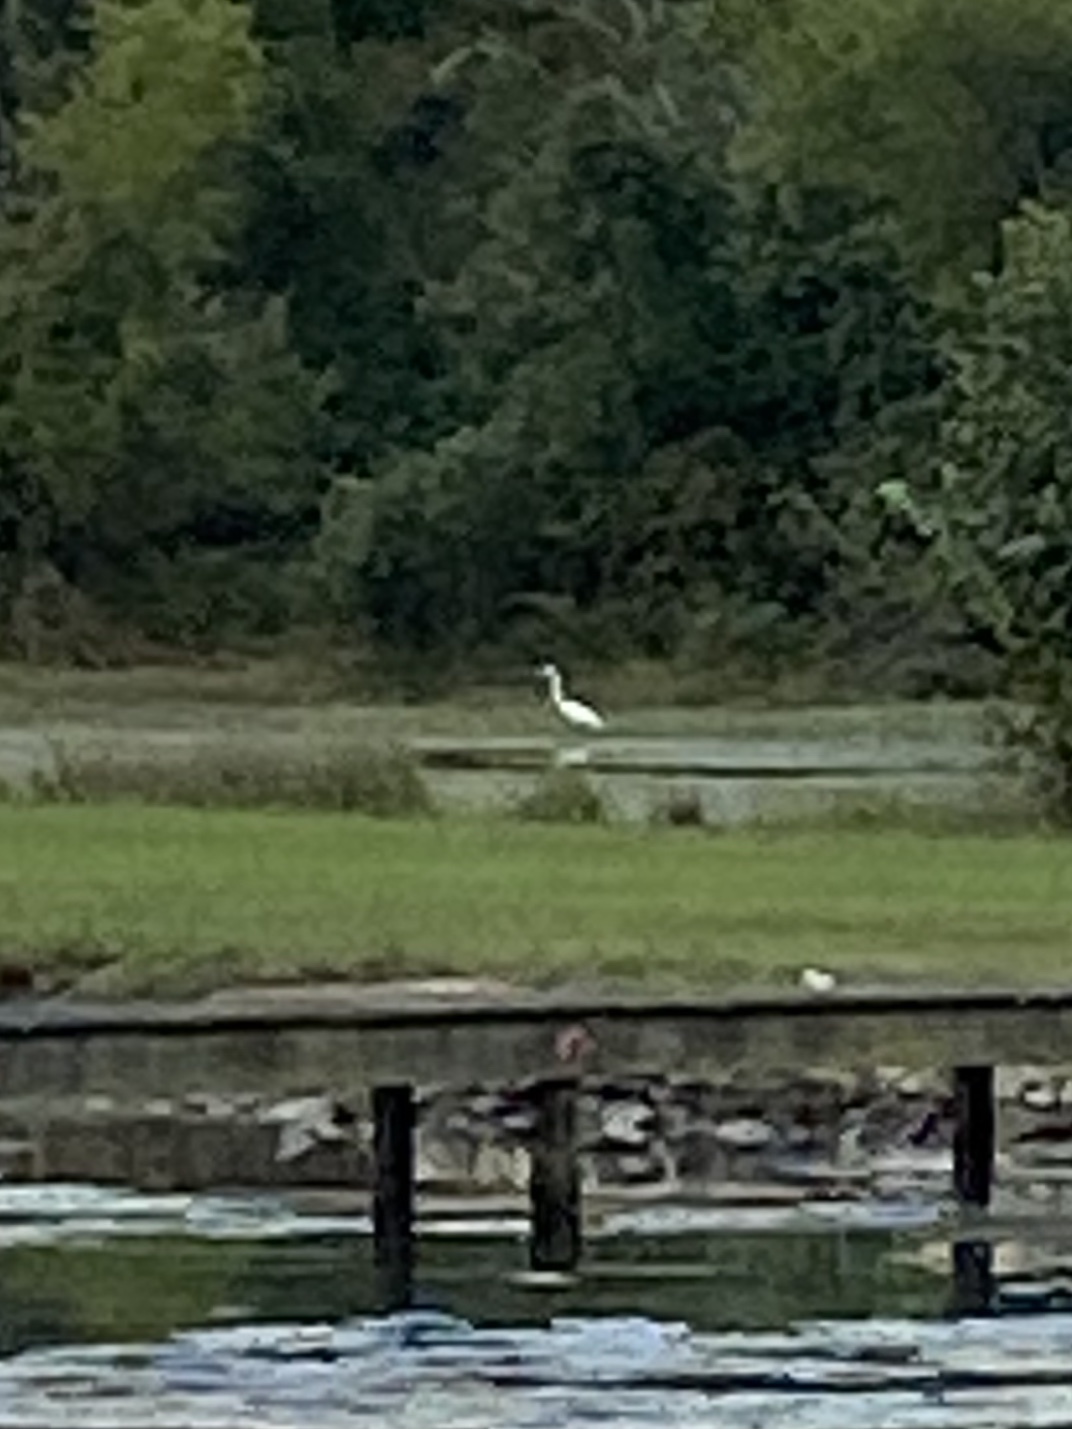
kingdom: Animalia
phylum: Chordata
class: Aves
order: Pelecaniformes
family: Ardeidae
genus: Ardea
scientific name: Ardea alba
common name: Great egret
